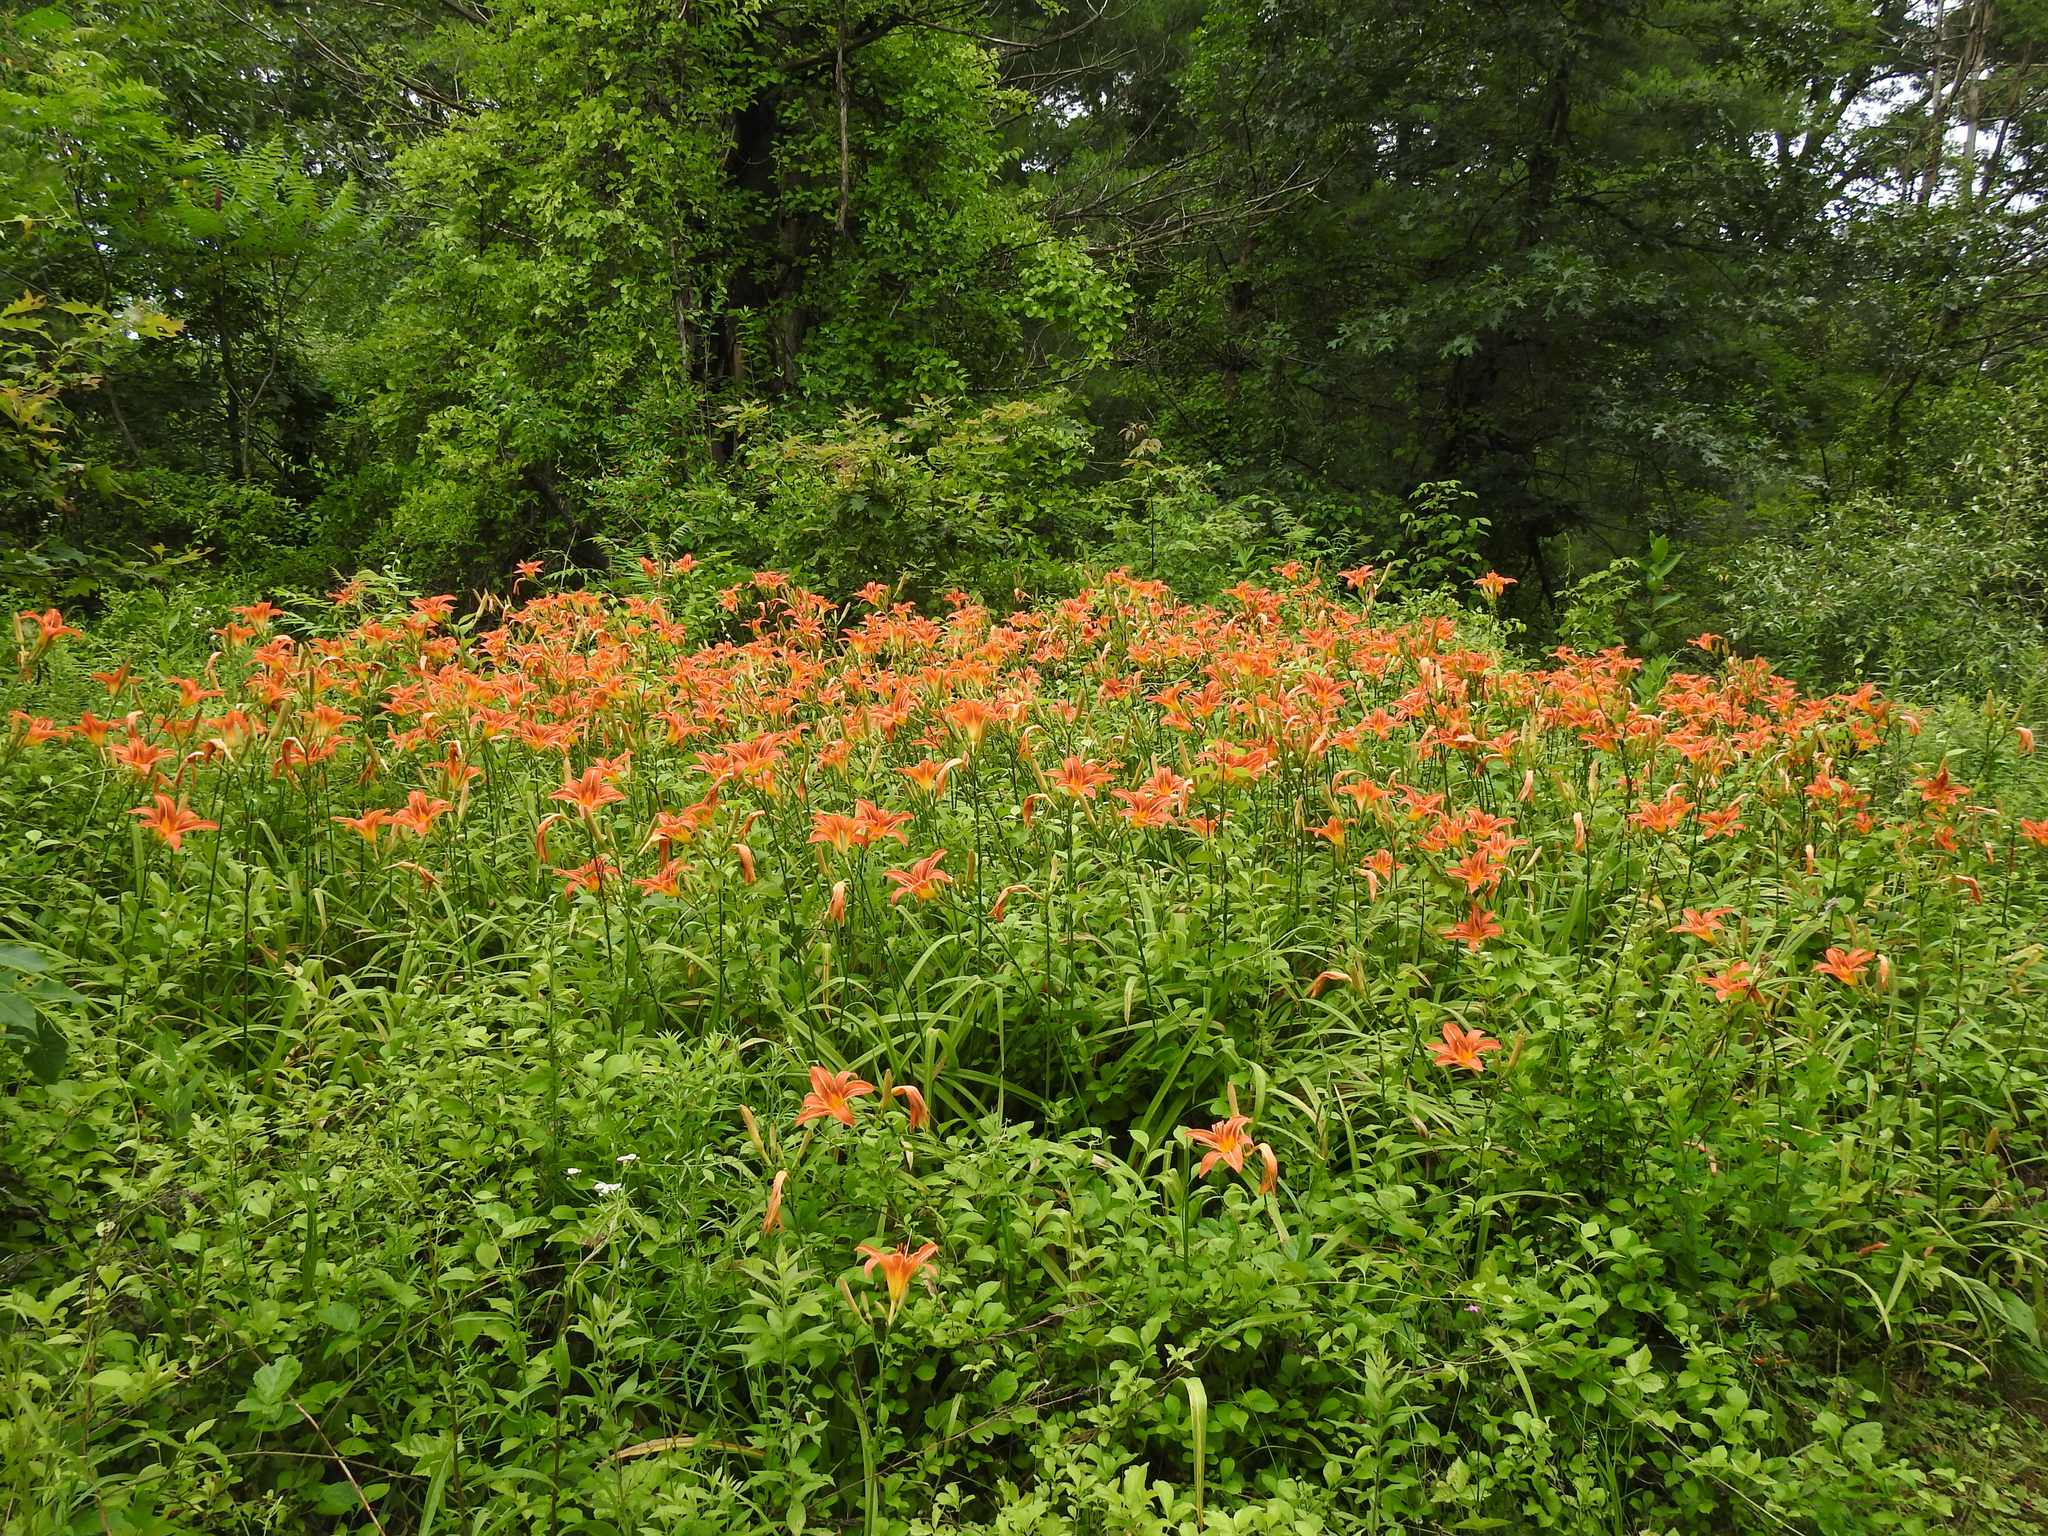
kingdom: Plantae
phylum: Tracheophyta
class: Liliopsida
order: Asparagales
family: Asphodelaceae
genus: Hemerocallis
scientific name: Hemerocallis fulva
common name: Orange day-lily
